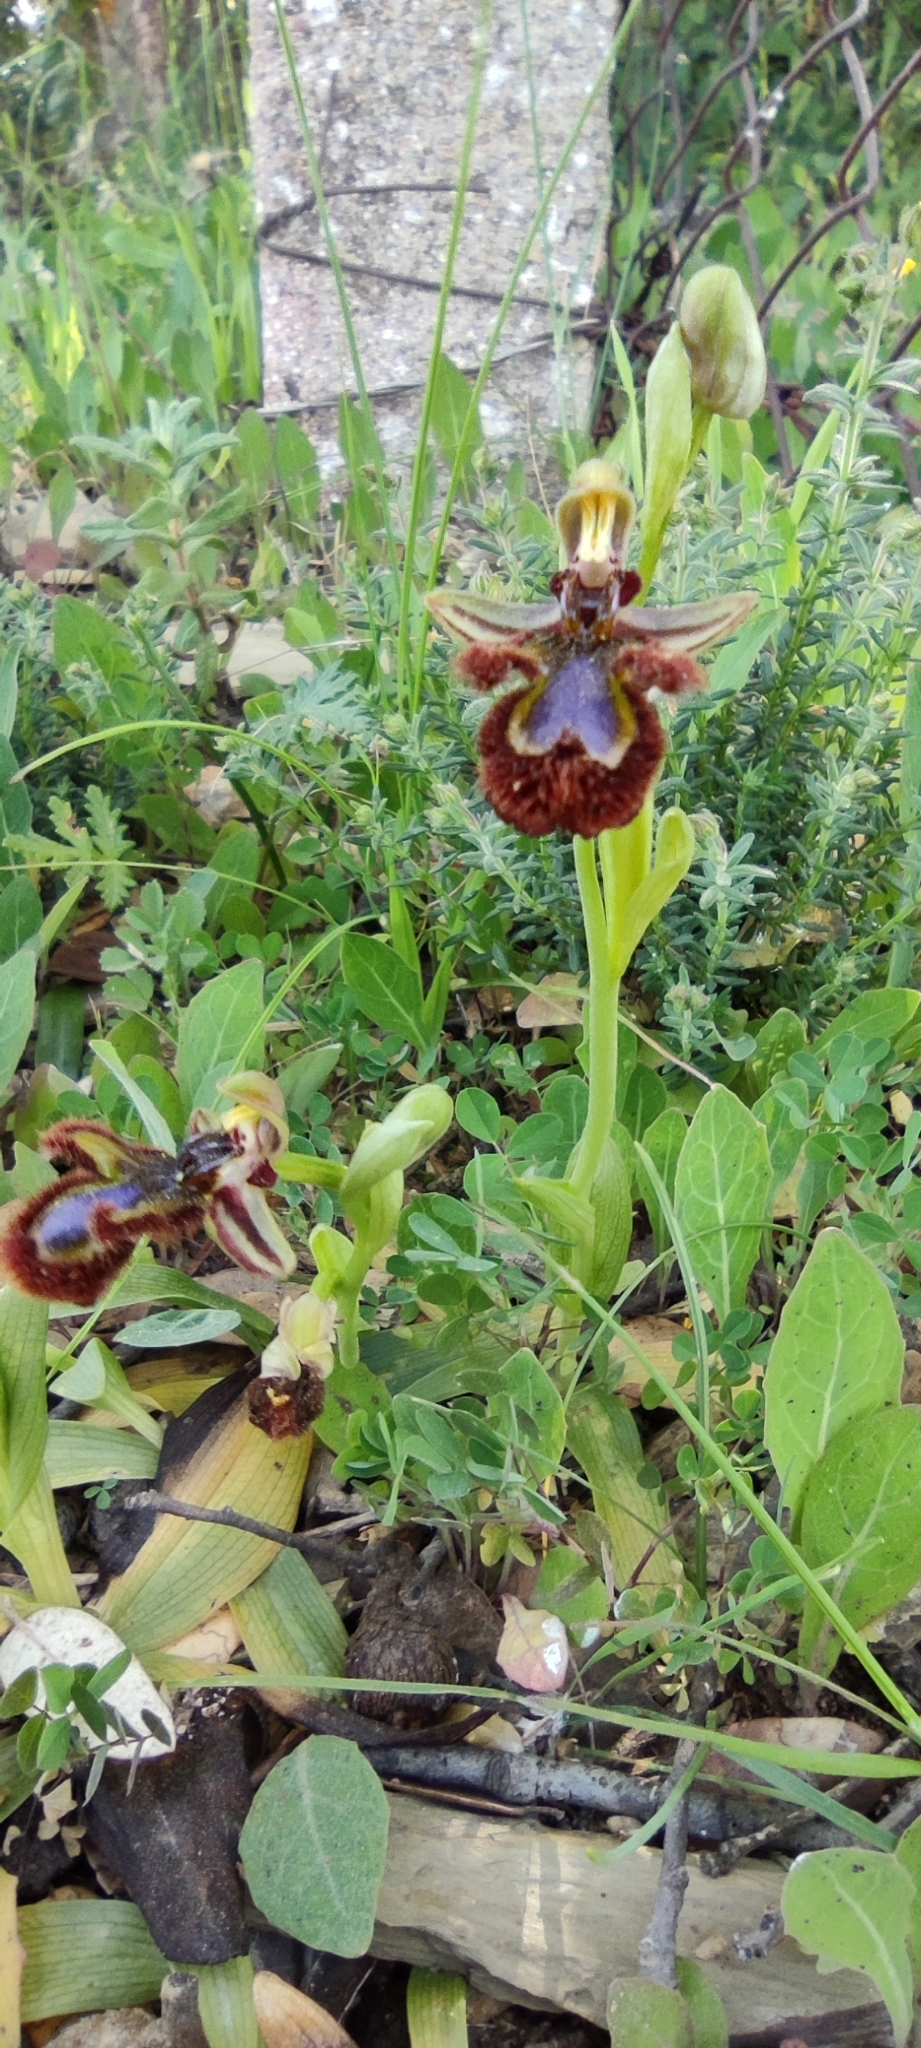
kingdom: Plantae
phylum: Tracheophyta
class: Liliopsida
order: Asparagales
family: Orchidaceae
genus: Ophrys
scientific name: Ophrys speculum
